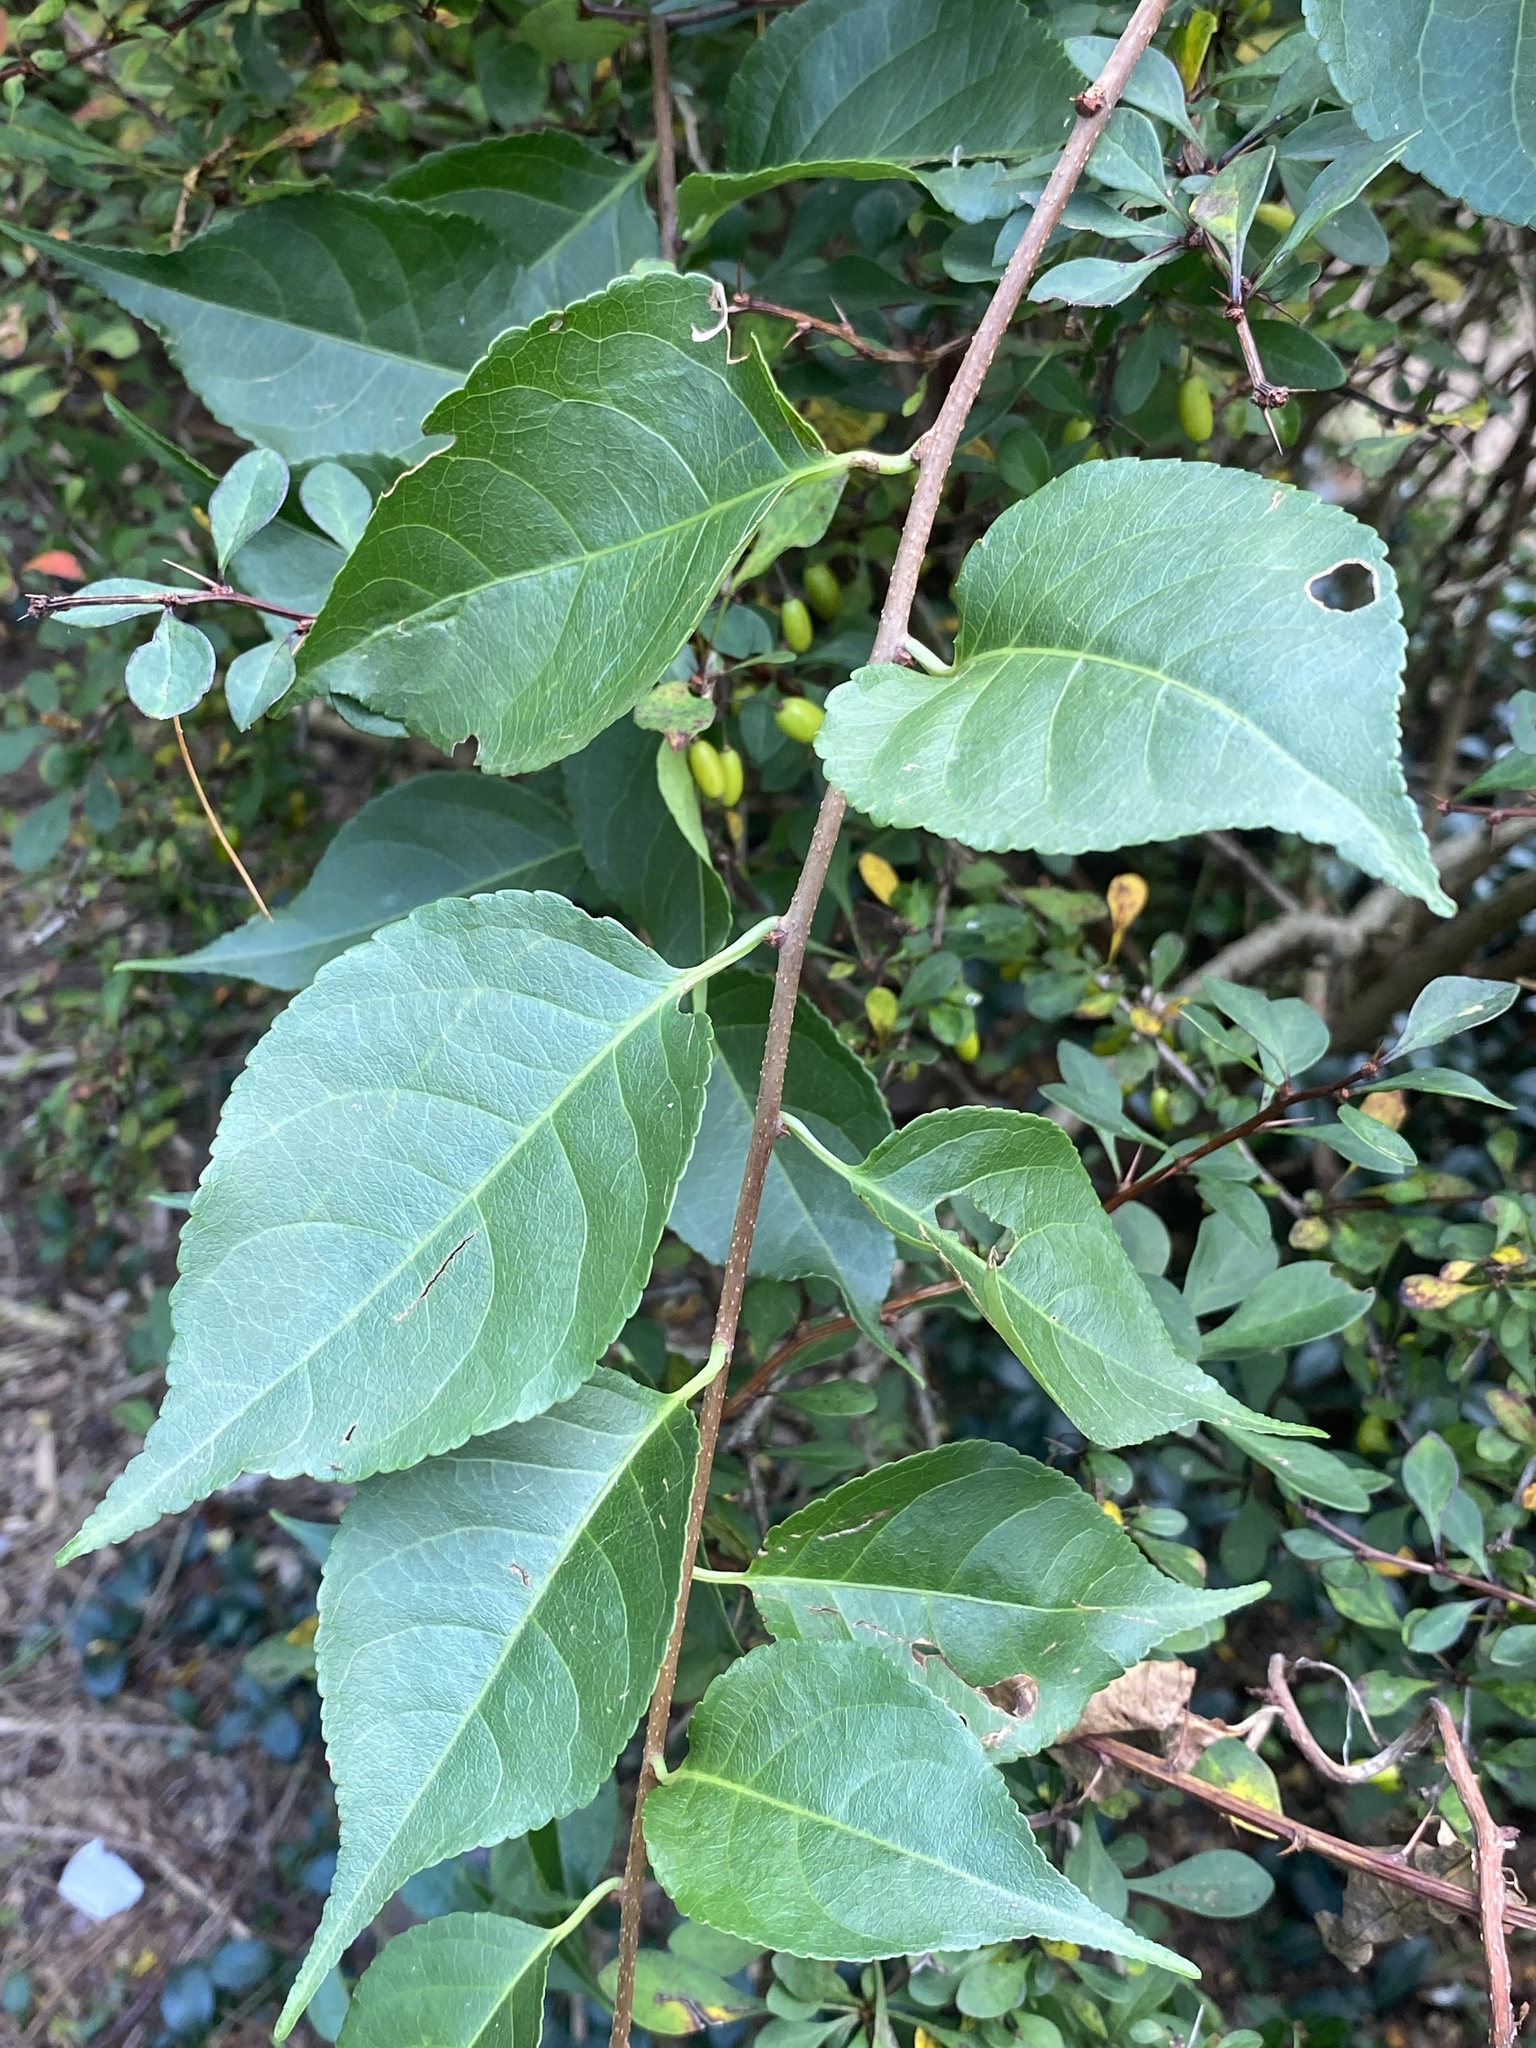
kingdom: Plantae
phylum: Tracheophyta
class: Magnoliopsida
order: Celastrales
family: Celastraceae
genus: Celastrus
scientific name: Celastrus orbiculatus
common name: Oriental bittersweet
